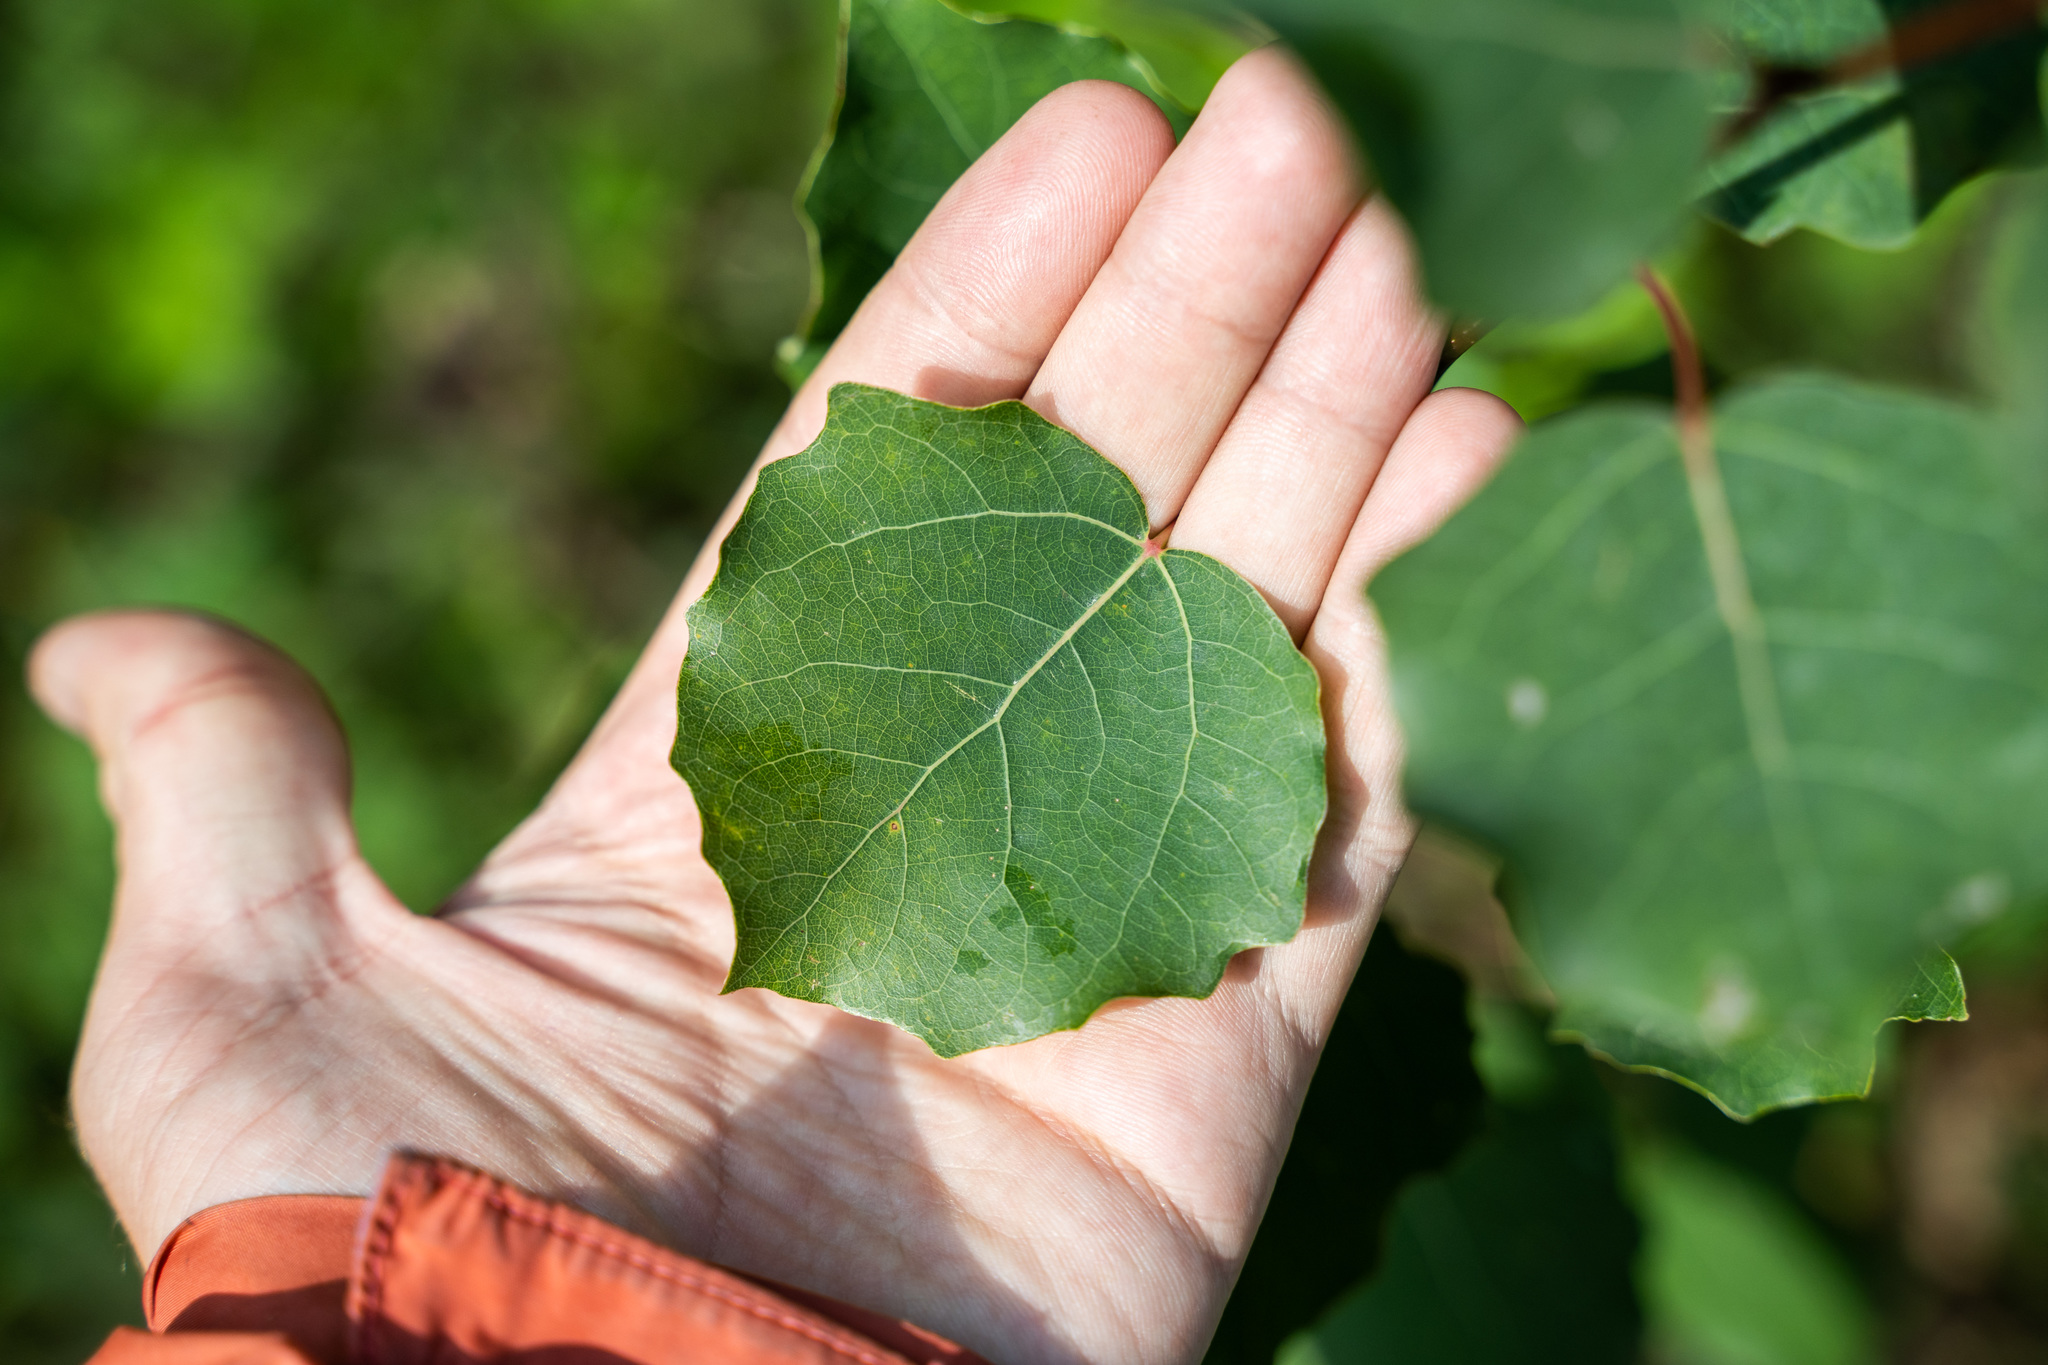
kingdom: Plantae
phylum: Tracheophyta
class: Magnoliopsida
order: Malpighiales
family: Salicaceae
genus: Populus
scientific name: Populus tremula
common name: European aspen
